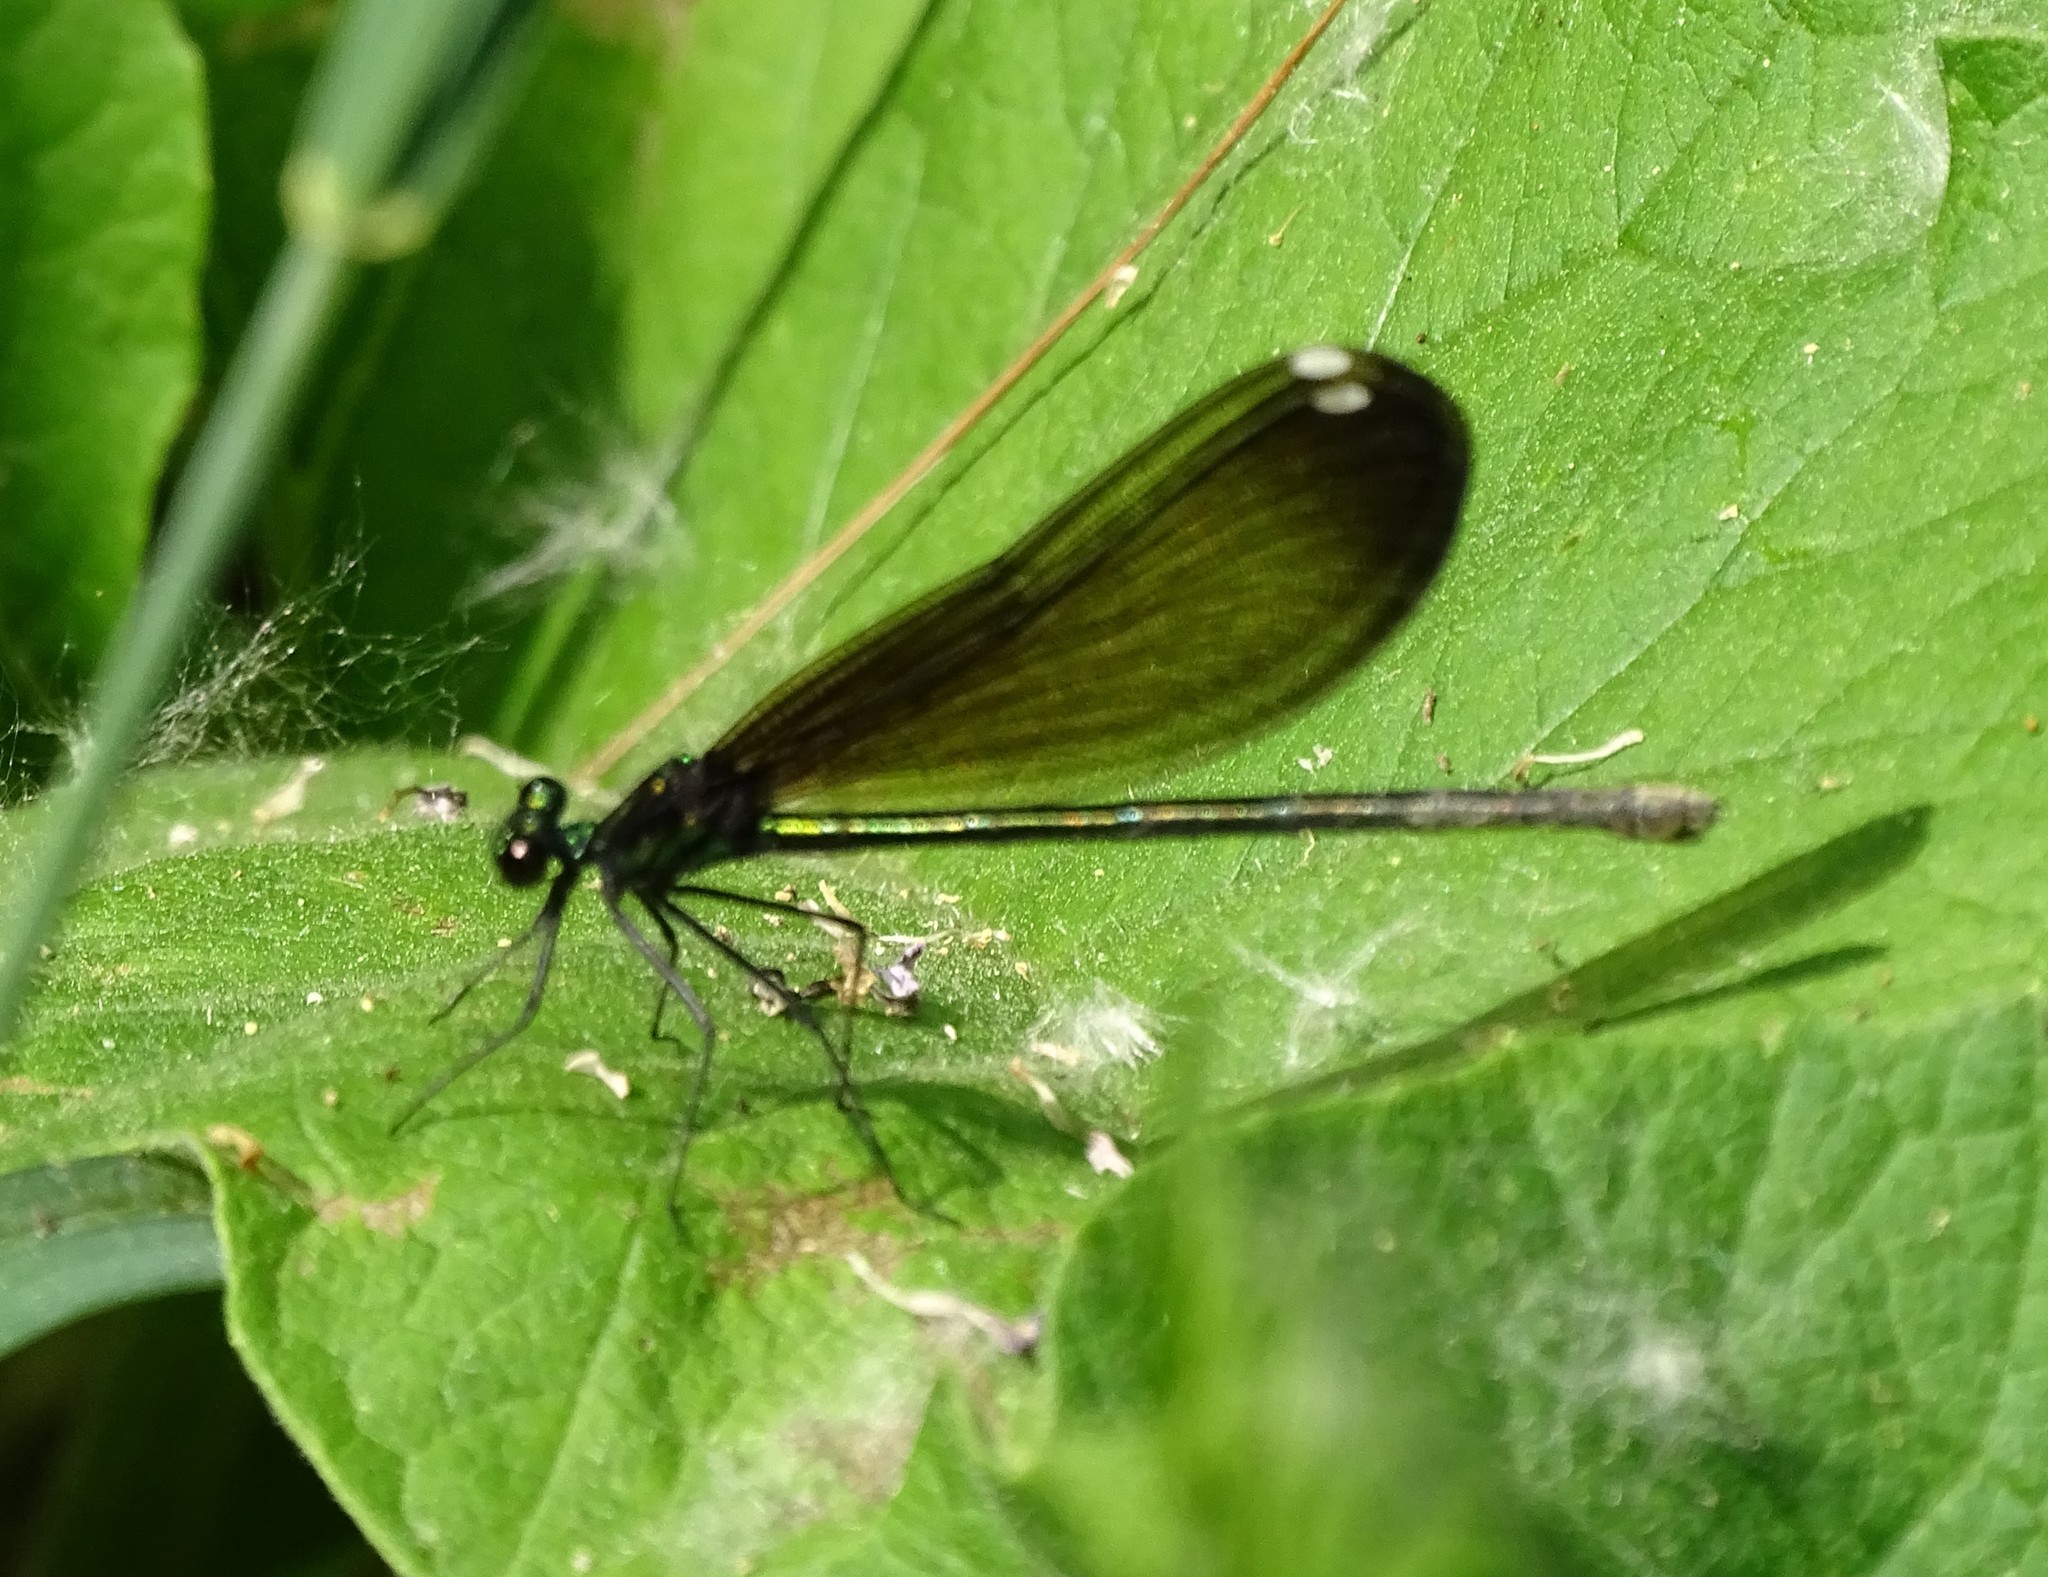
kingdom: Animalia
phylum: Arthropoda
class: Insecta
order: Odonata
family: Calopterygidae
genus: Calopteryx
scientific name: Calopteryx maculata
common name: Ebony jewelwing
